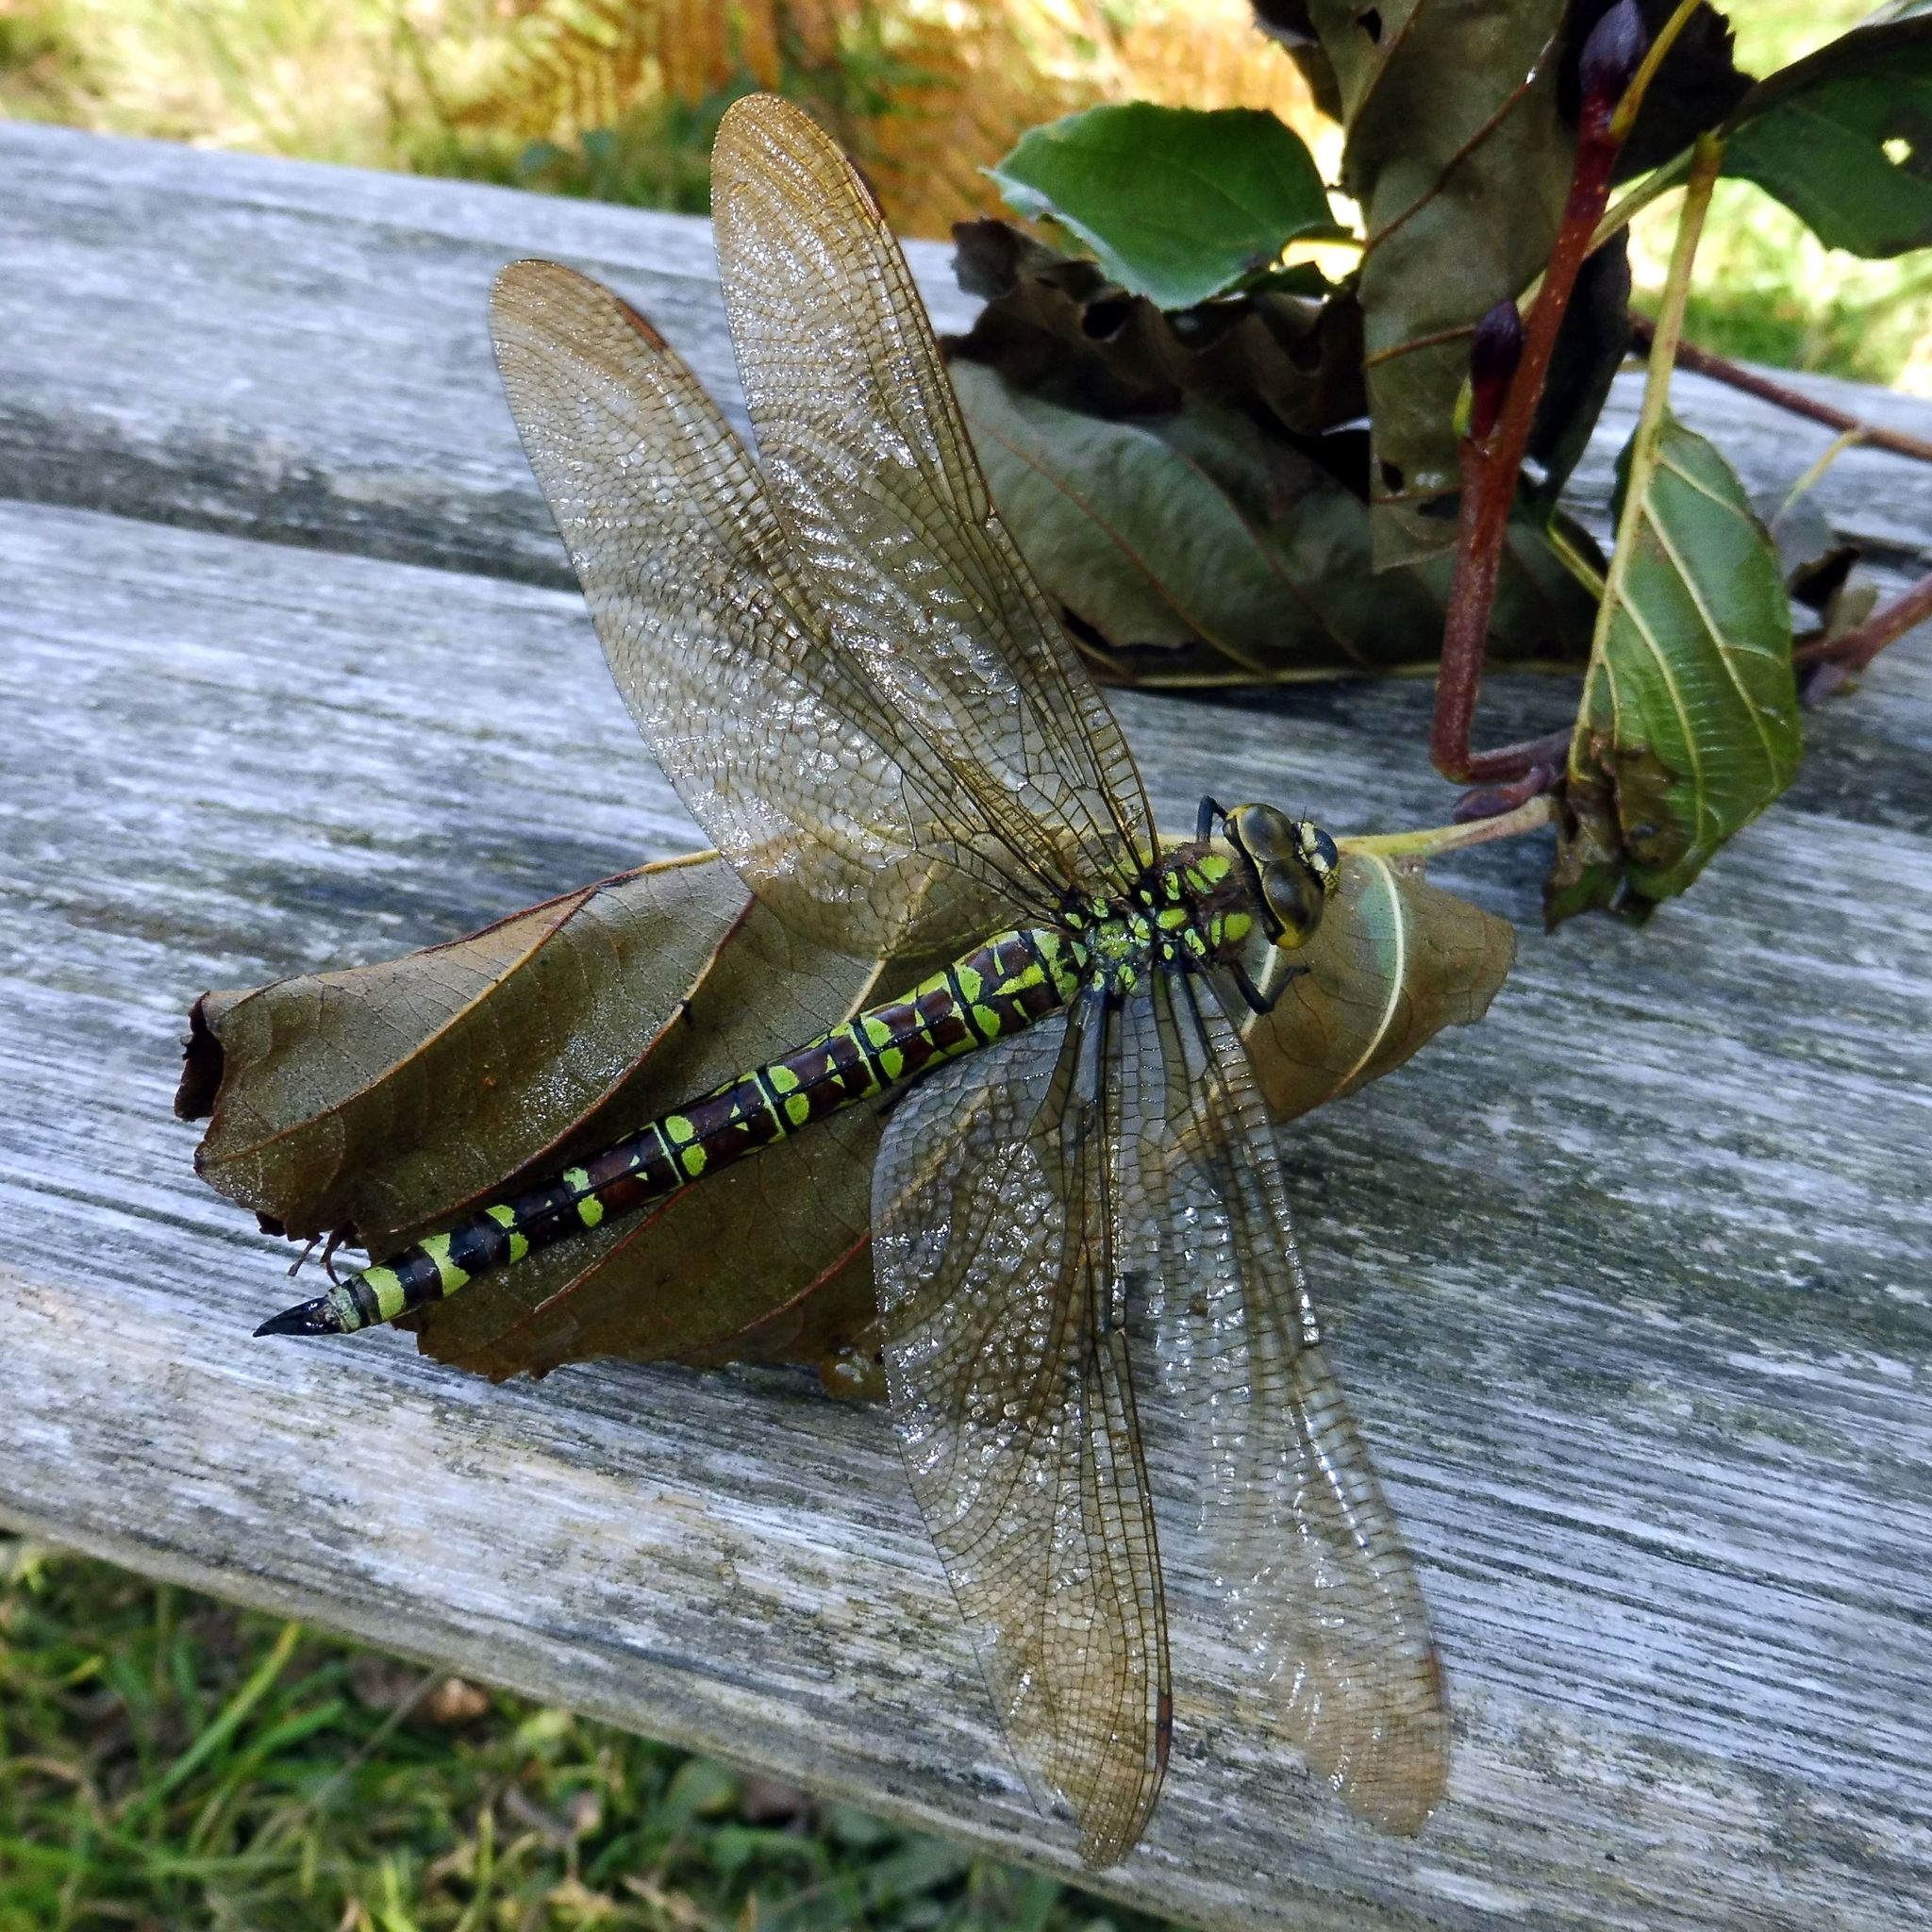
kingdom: Animalia
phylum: Arthropoda
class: Insecta
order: Odonata
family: Aeshnidae
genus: Aeshna
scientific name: Aeshna cyanea
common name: Southern hawker
